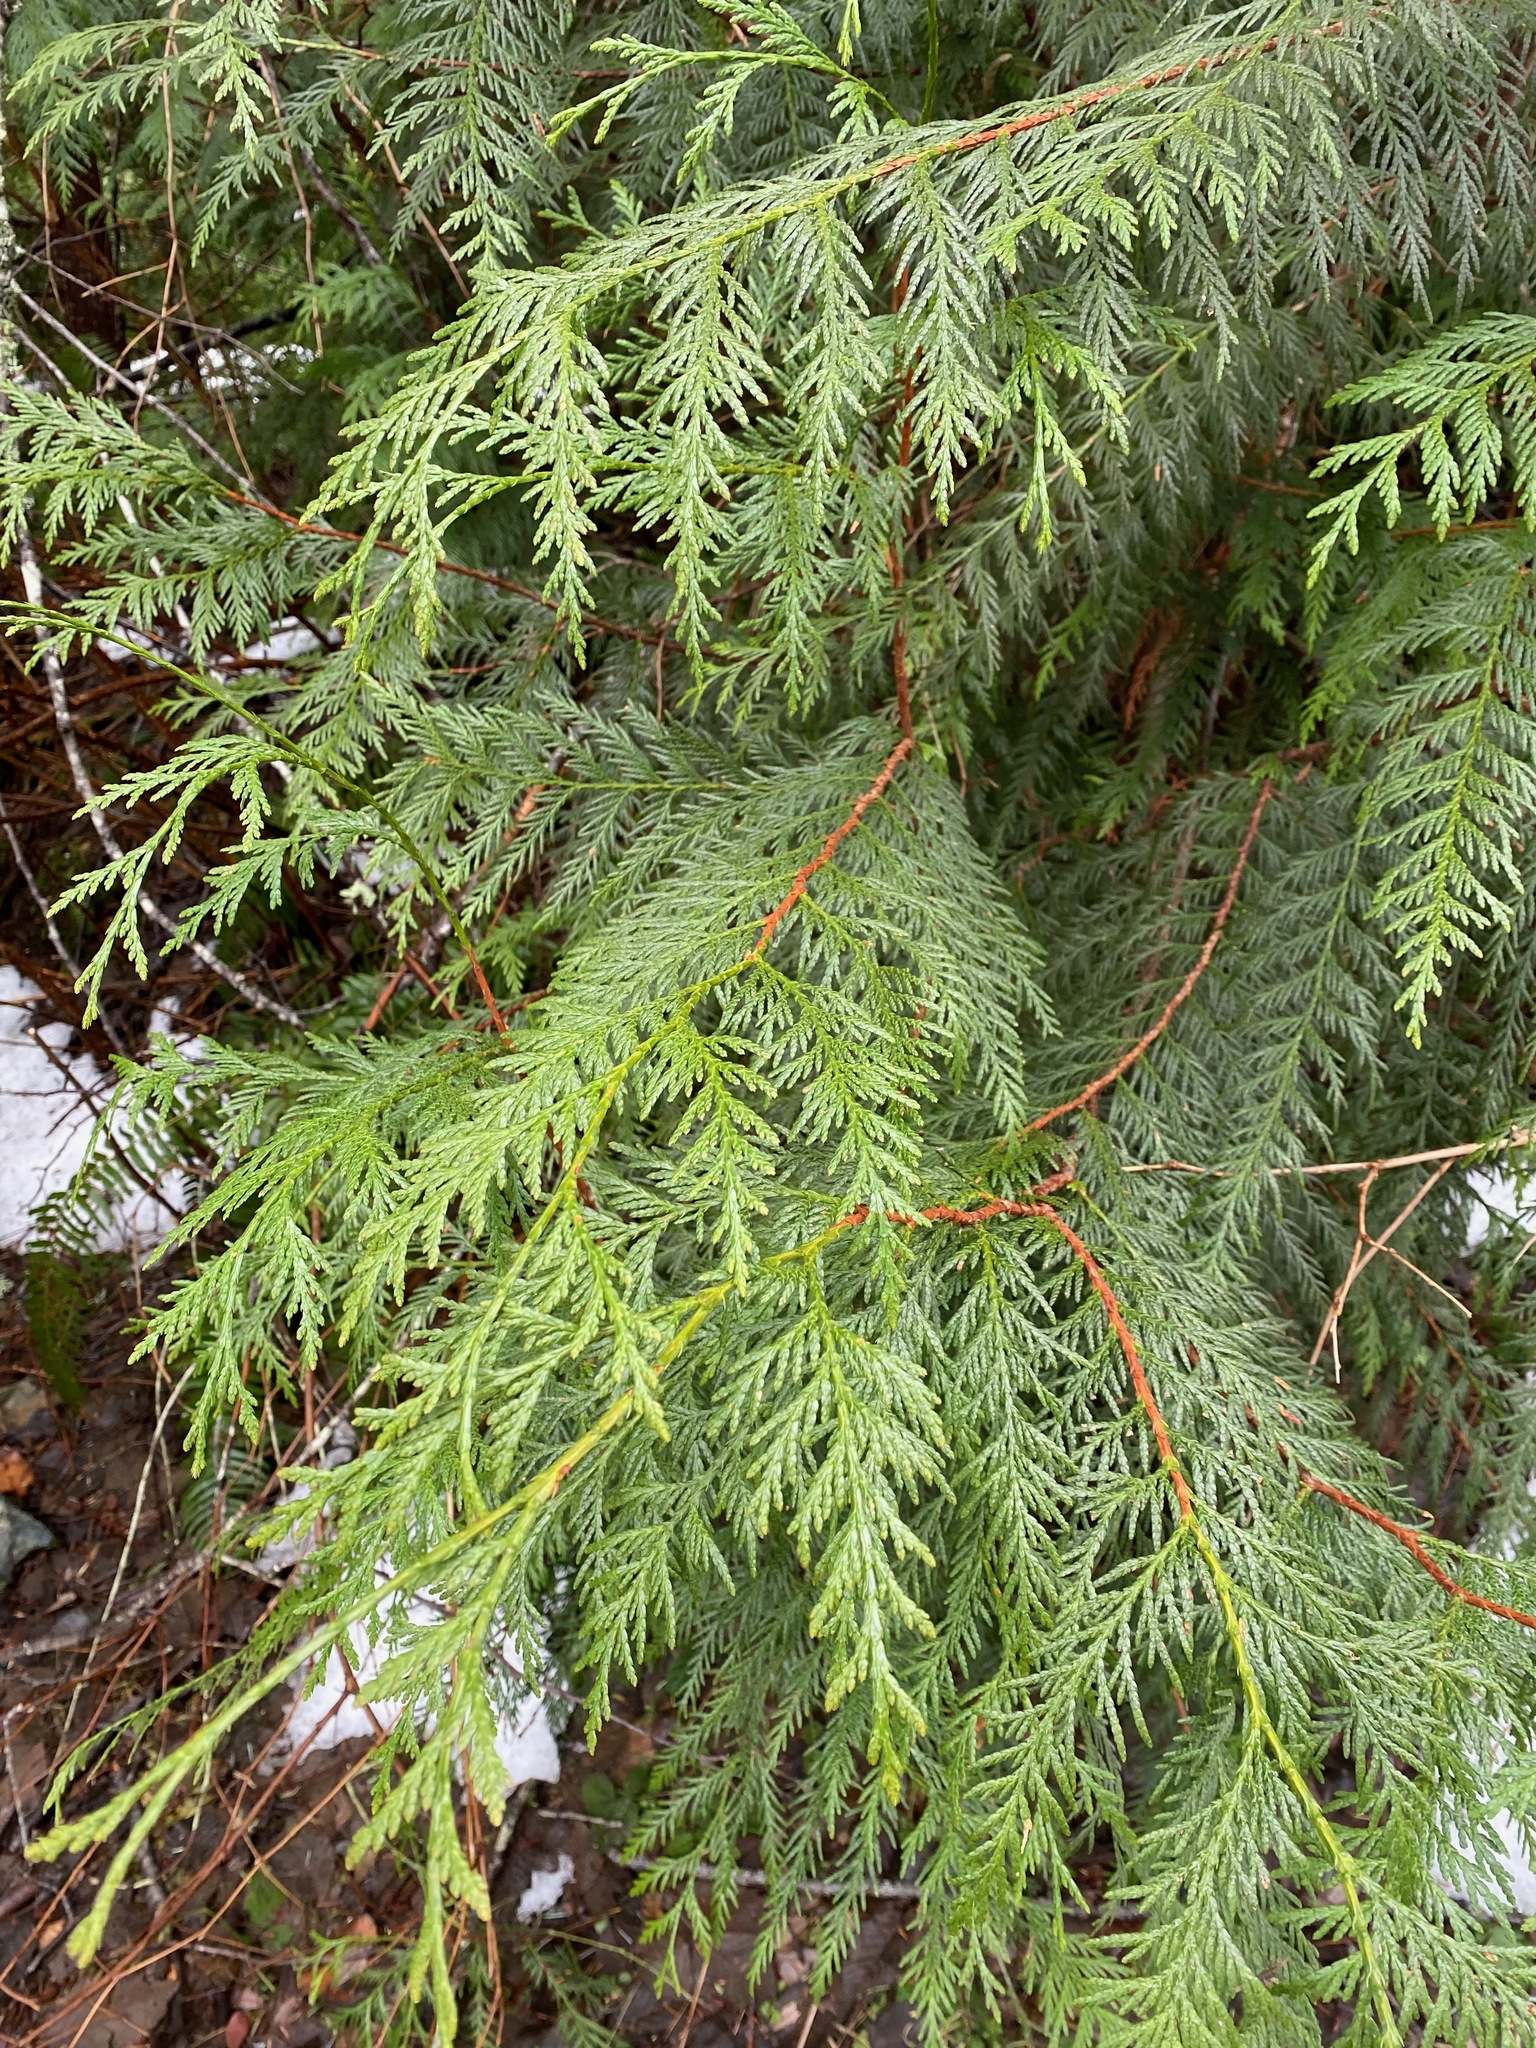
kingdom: Plantae
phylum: Tracheophyta
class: Pinopsida
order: Pinales
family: Cupressaceae
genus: Thuja
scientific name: Thuja plicata
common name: Western red-cedar
